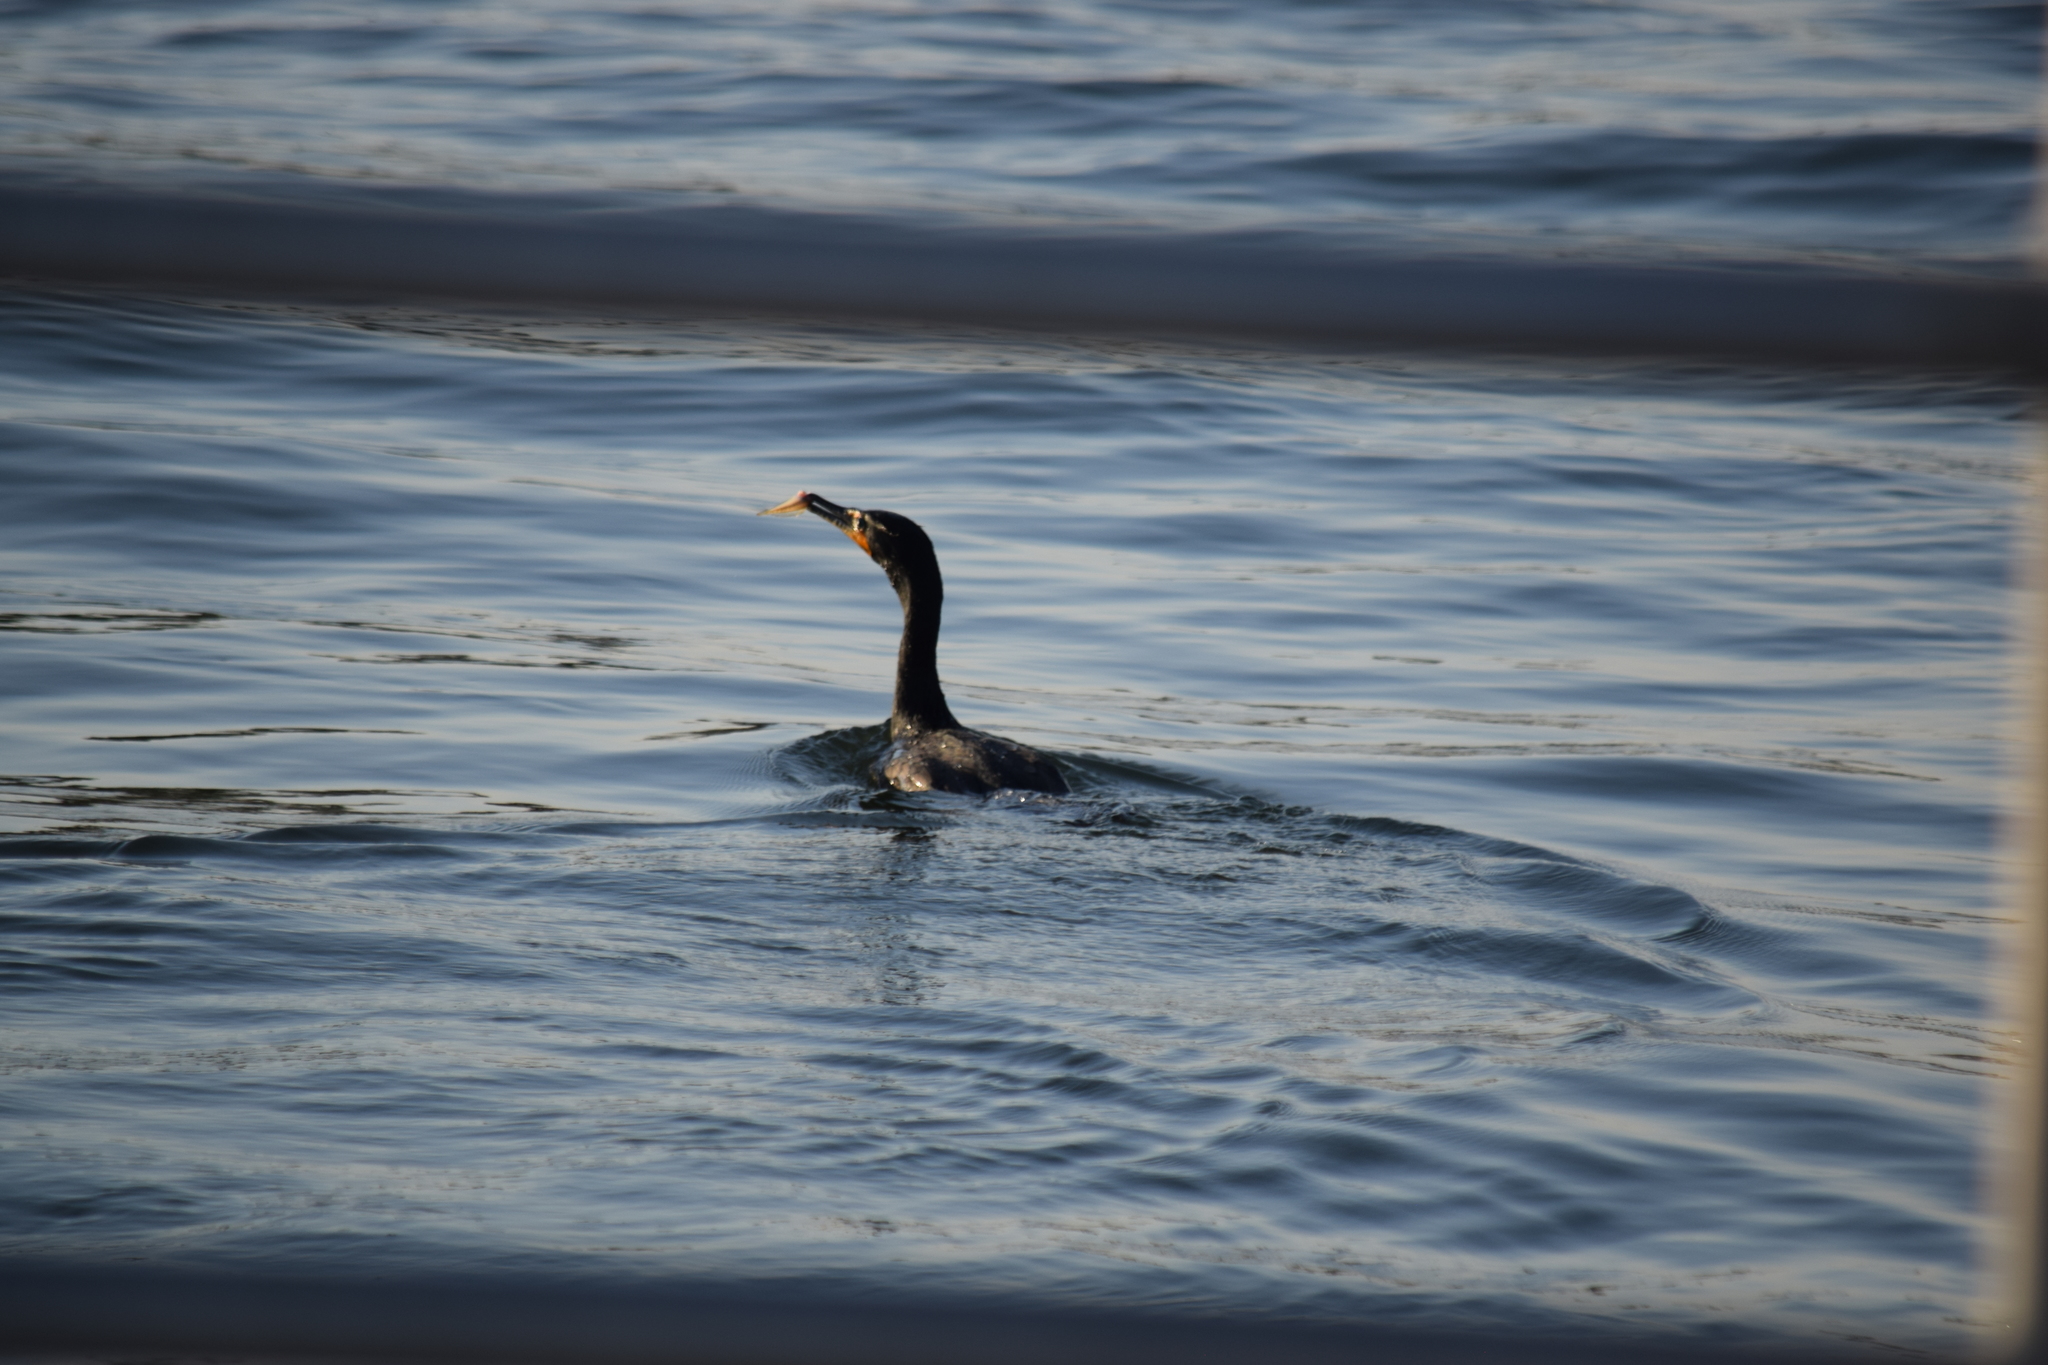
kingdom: Animalia
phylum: Chordata
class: Aves
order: Suliformes
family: Phalacrocoracidae
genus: Phalacrocorax
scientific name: Phalacrocorax auritus
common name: Double-crested cormorant
